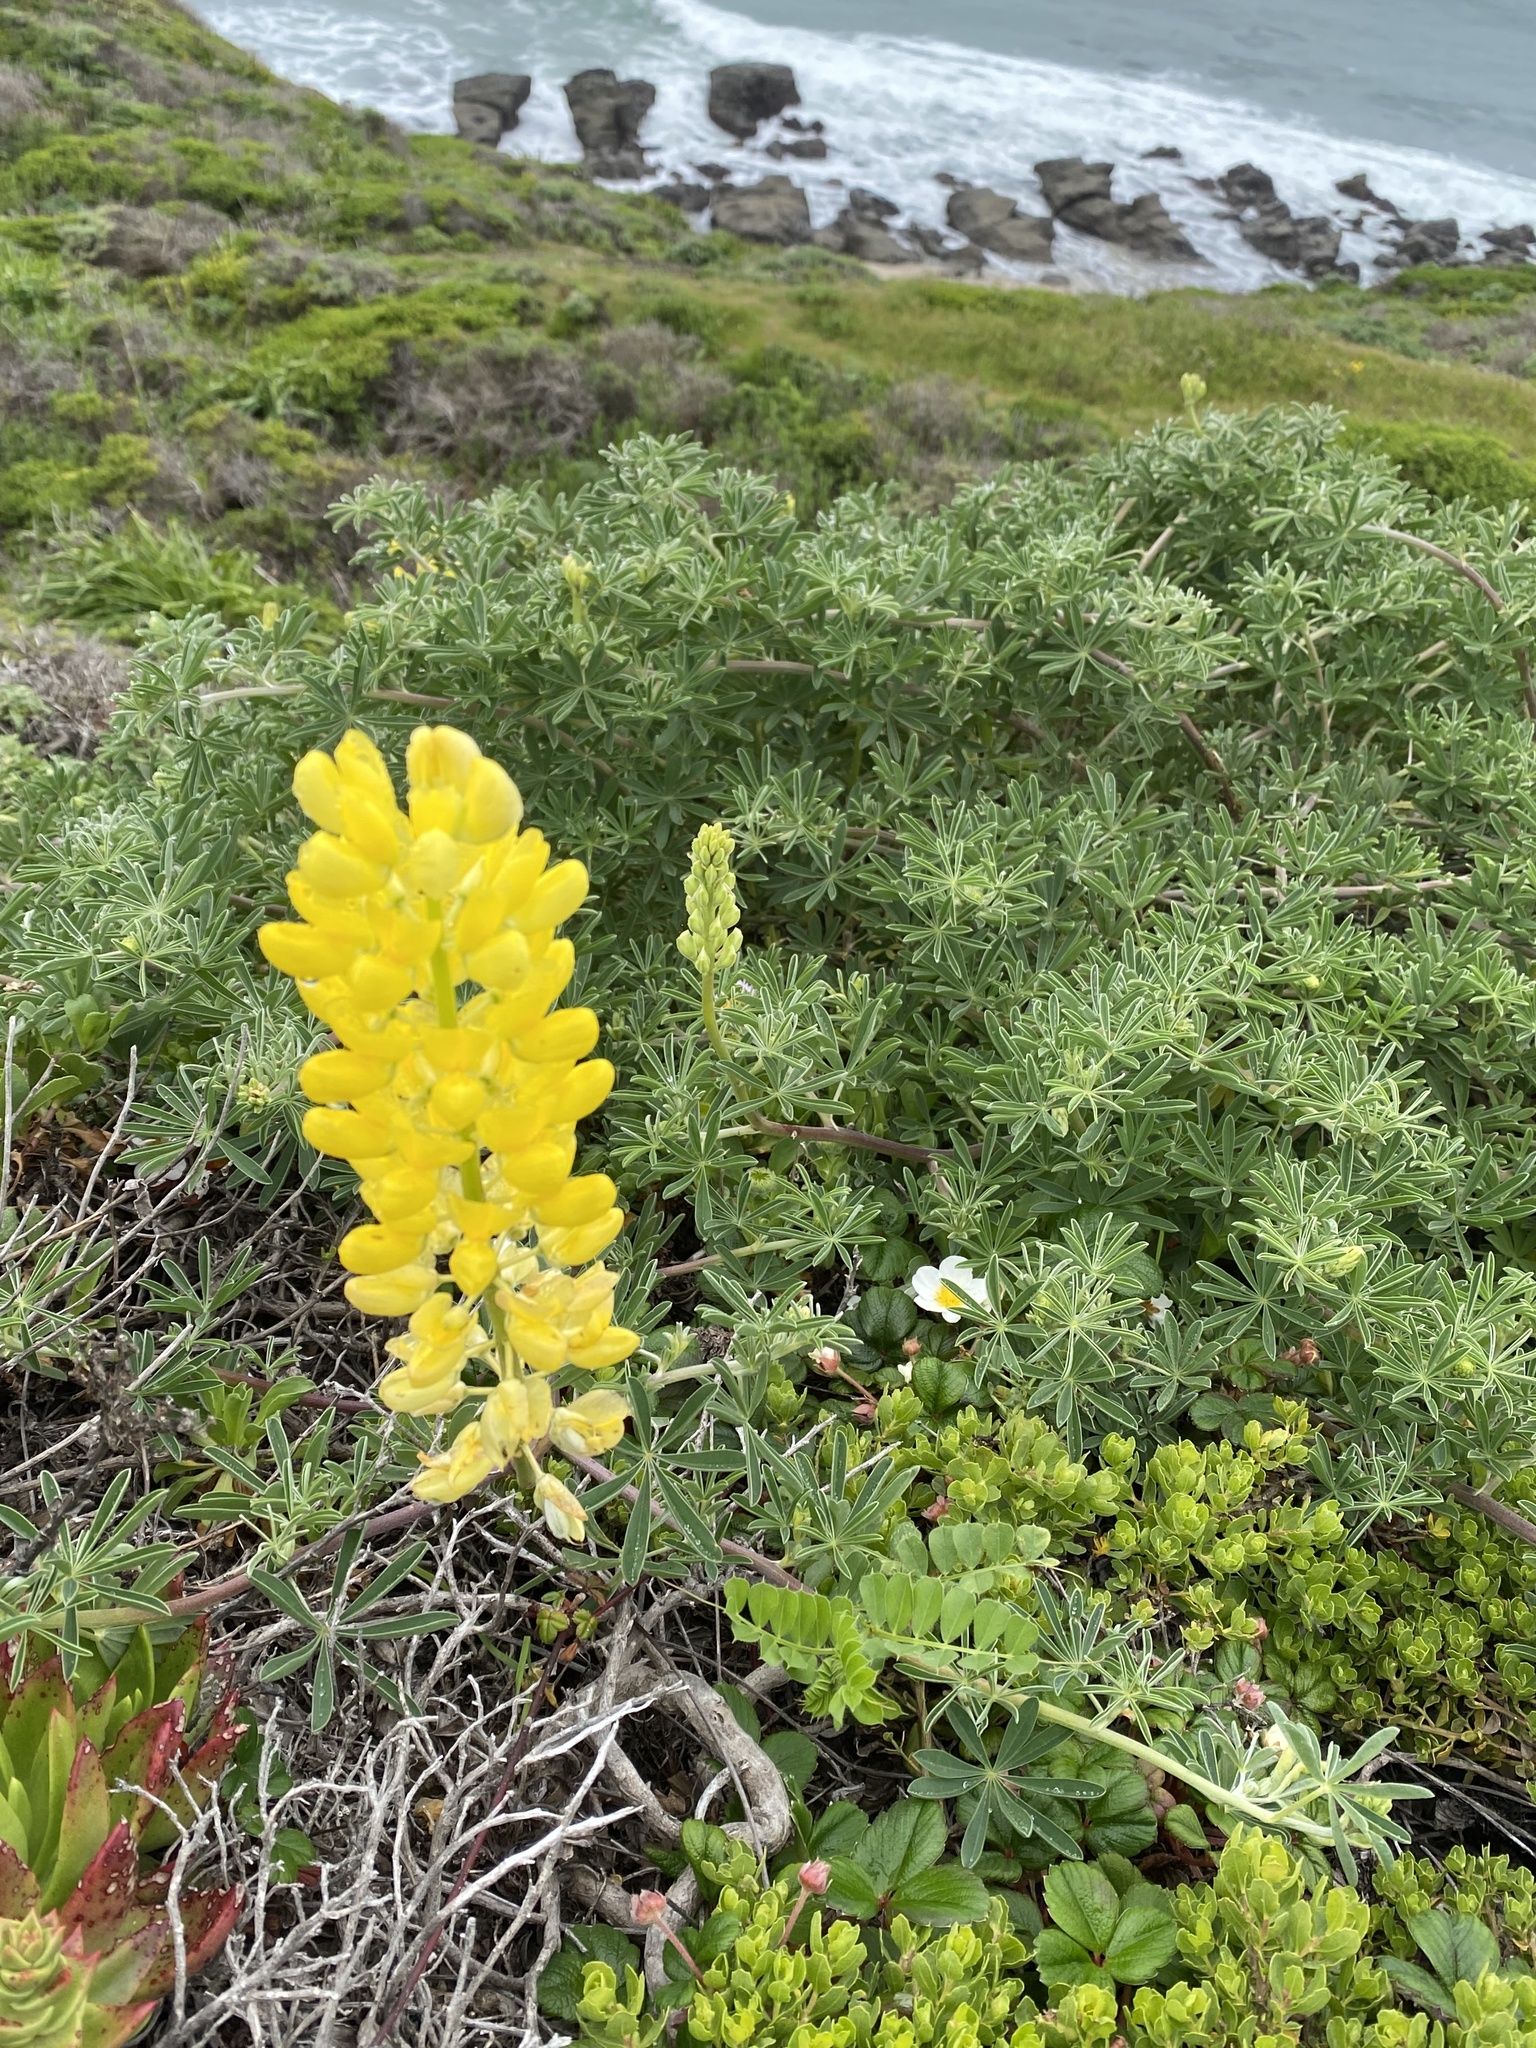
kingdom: Plantae
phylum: Tracheophyta
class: Magnoliopsida
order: Fabales
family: Fabaceae
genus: Lupinus
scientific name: Lupinus arboreus
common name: Yellow bush lupine
